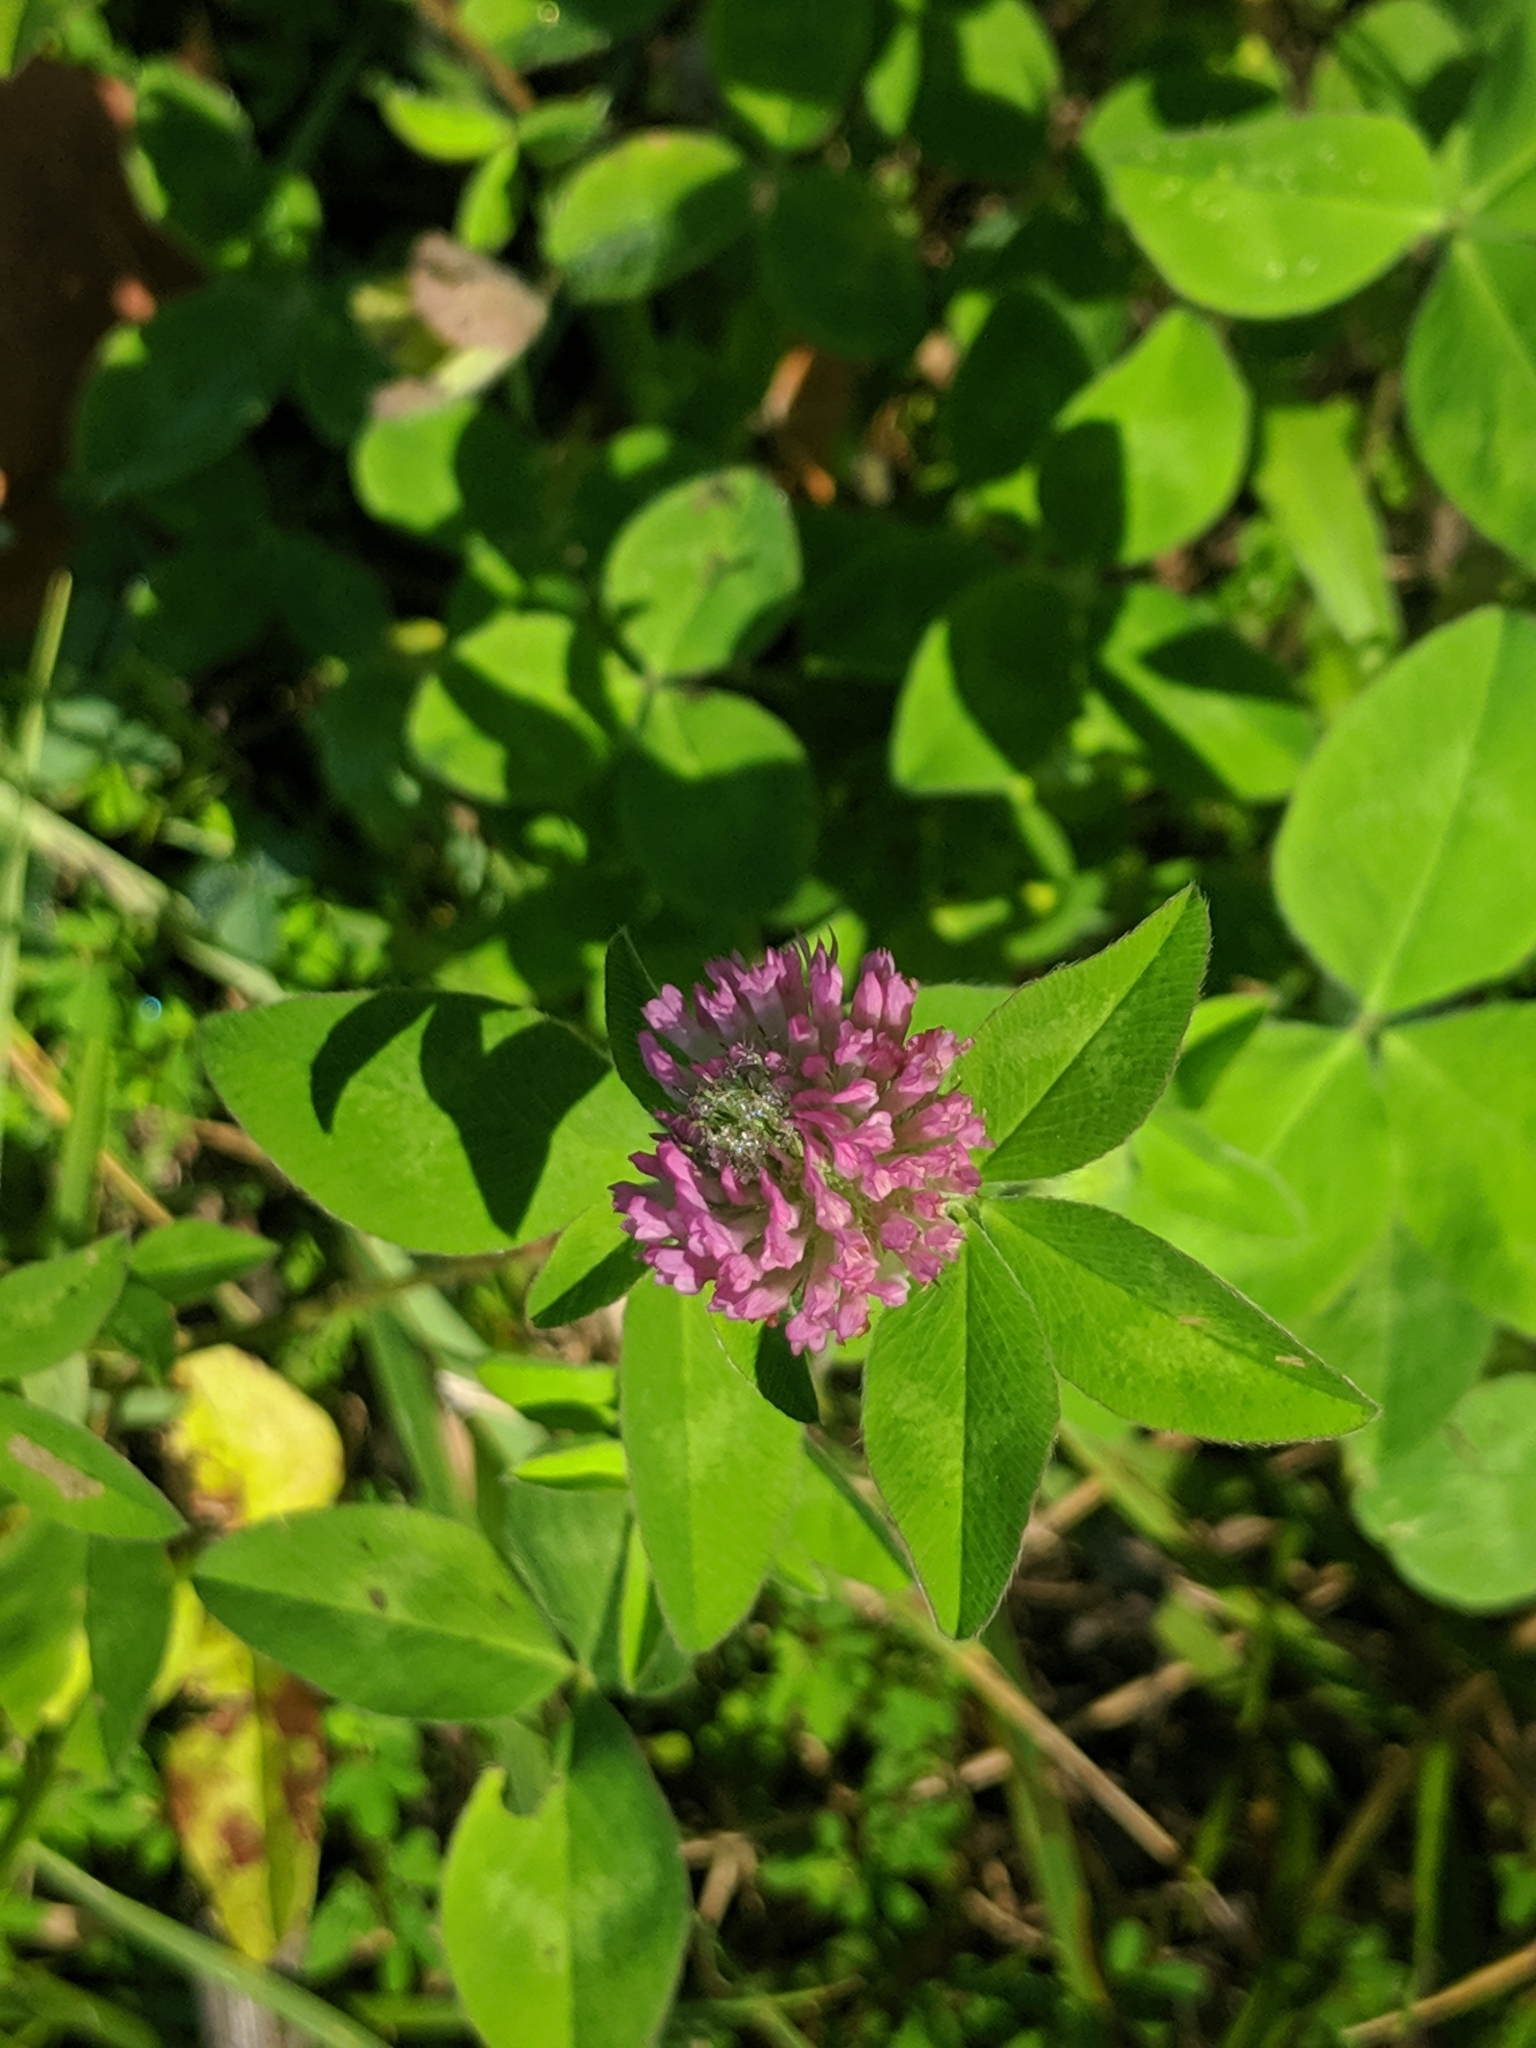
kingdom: Plantae
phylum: Tracheophyta
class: Magnoliopsida
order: Fabales
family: Fabaceae
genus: Trifolium
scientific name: Trifolium pratense
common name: Red clover
